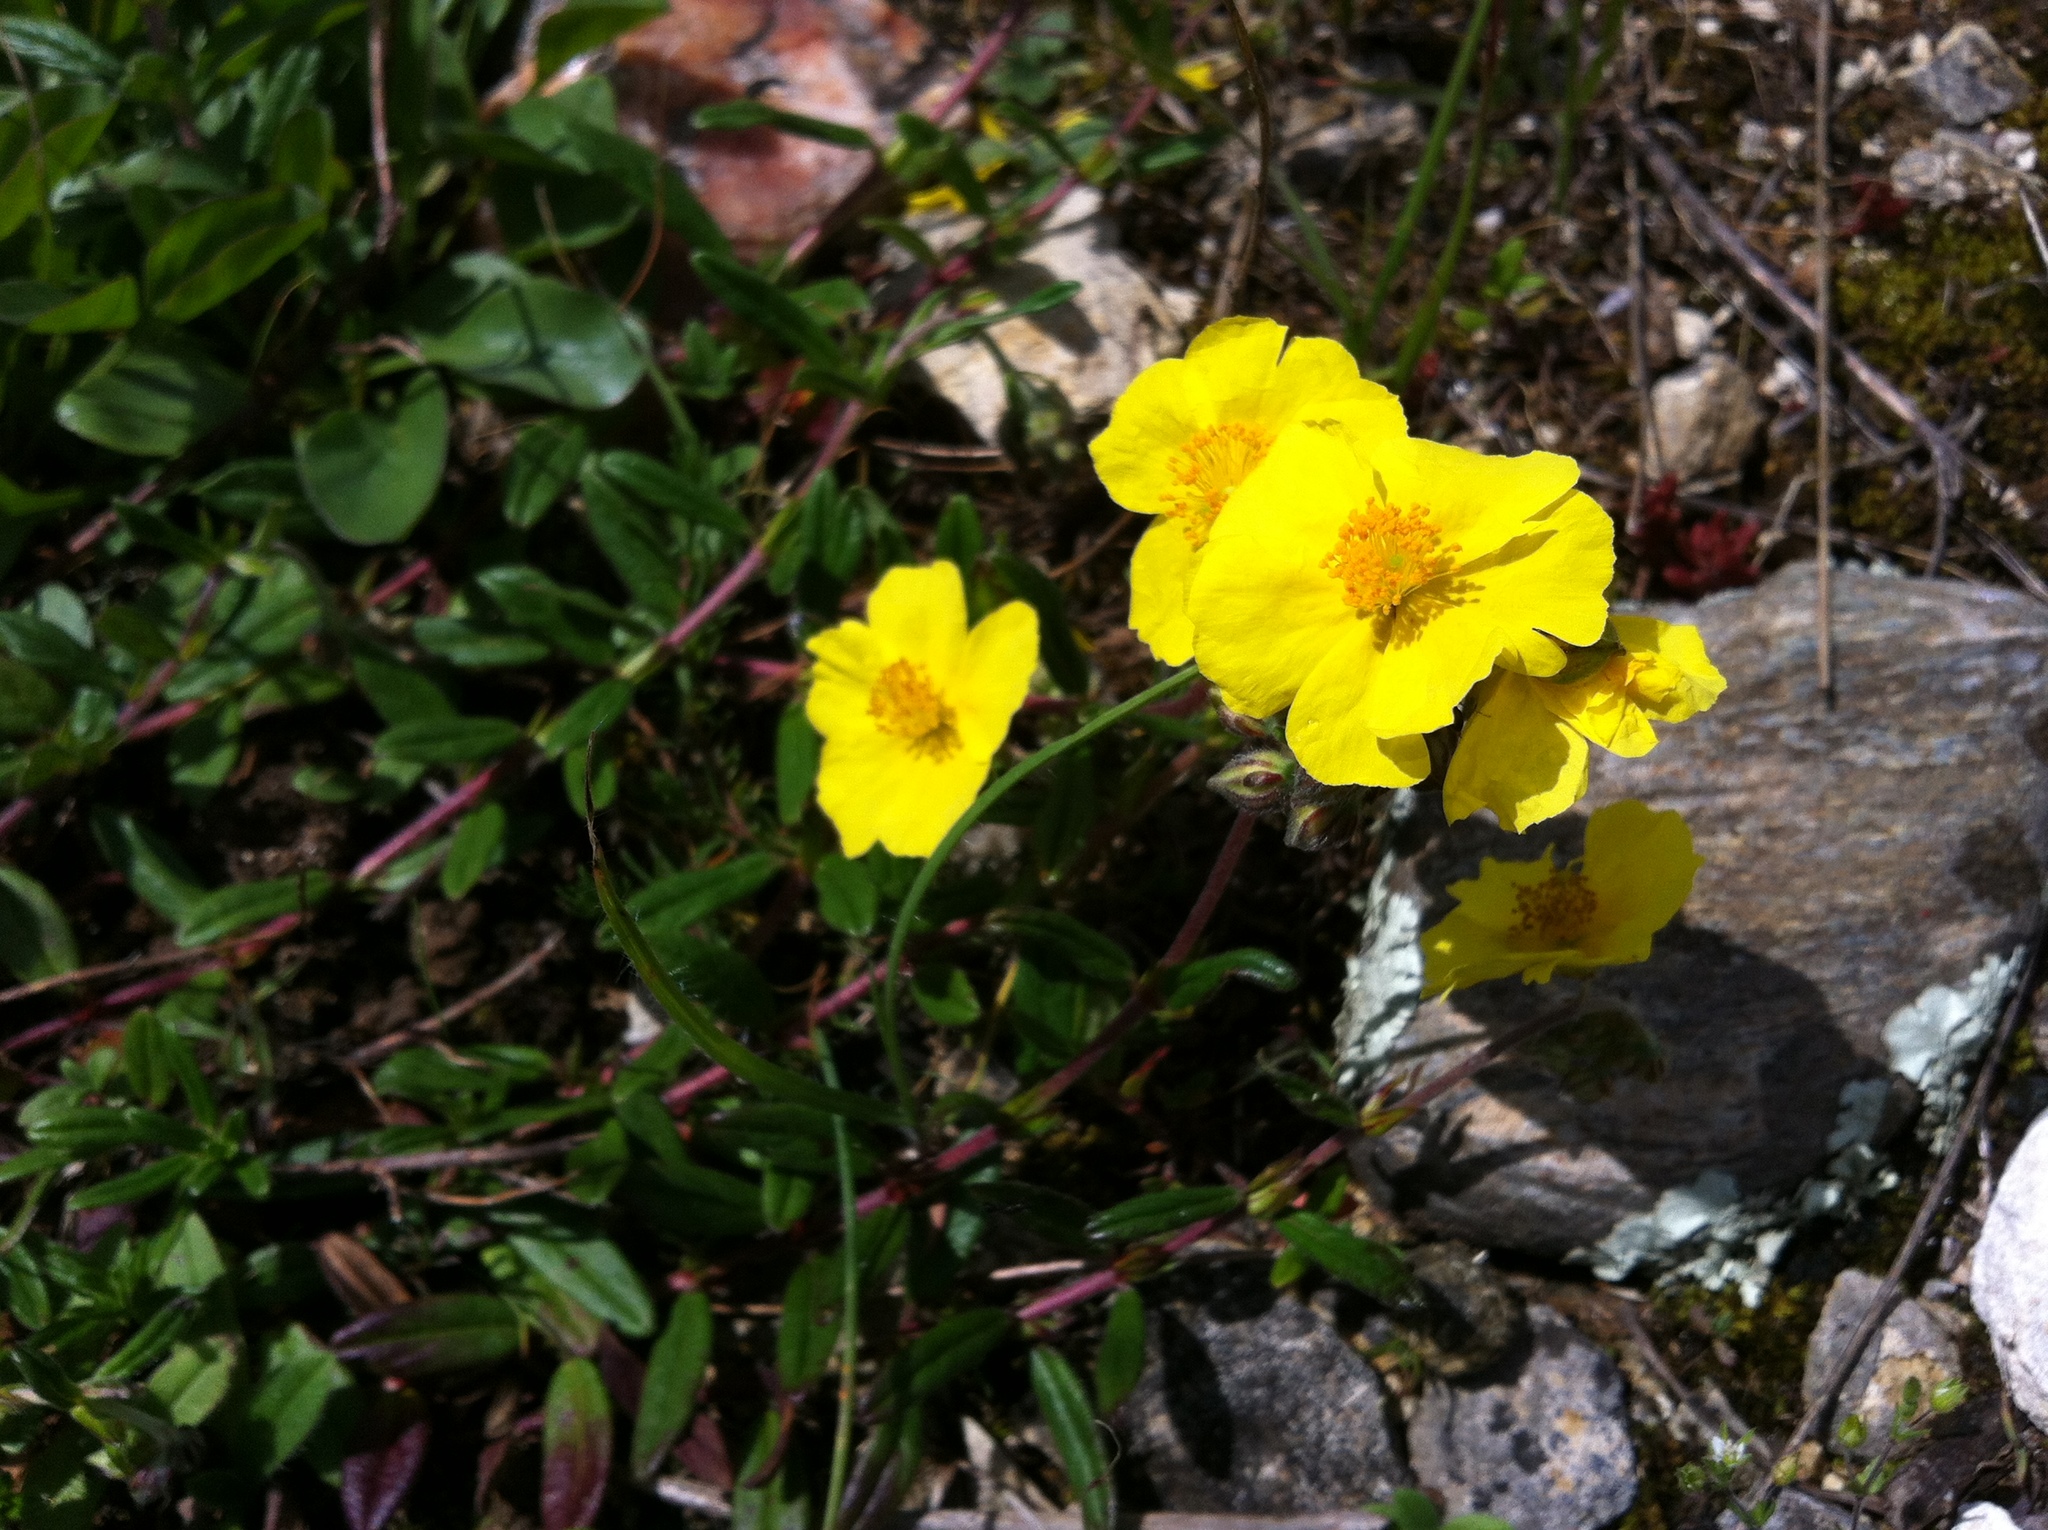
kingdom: Plantae
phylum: Tracheophyta
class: Magnoliopsida
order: Malvales
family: Cistaceae
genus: Helianthemum
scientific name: Helianthemum nummularium
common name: Common rock-rose
